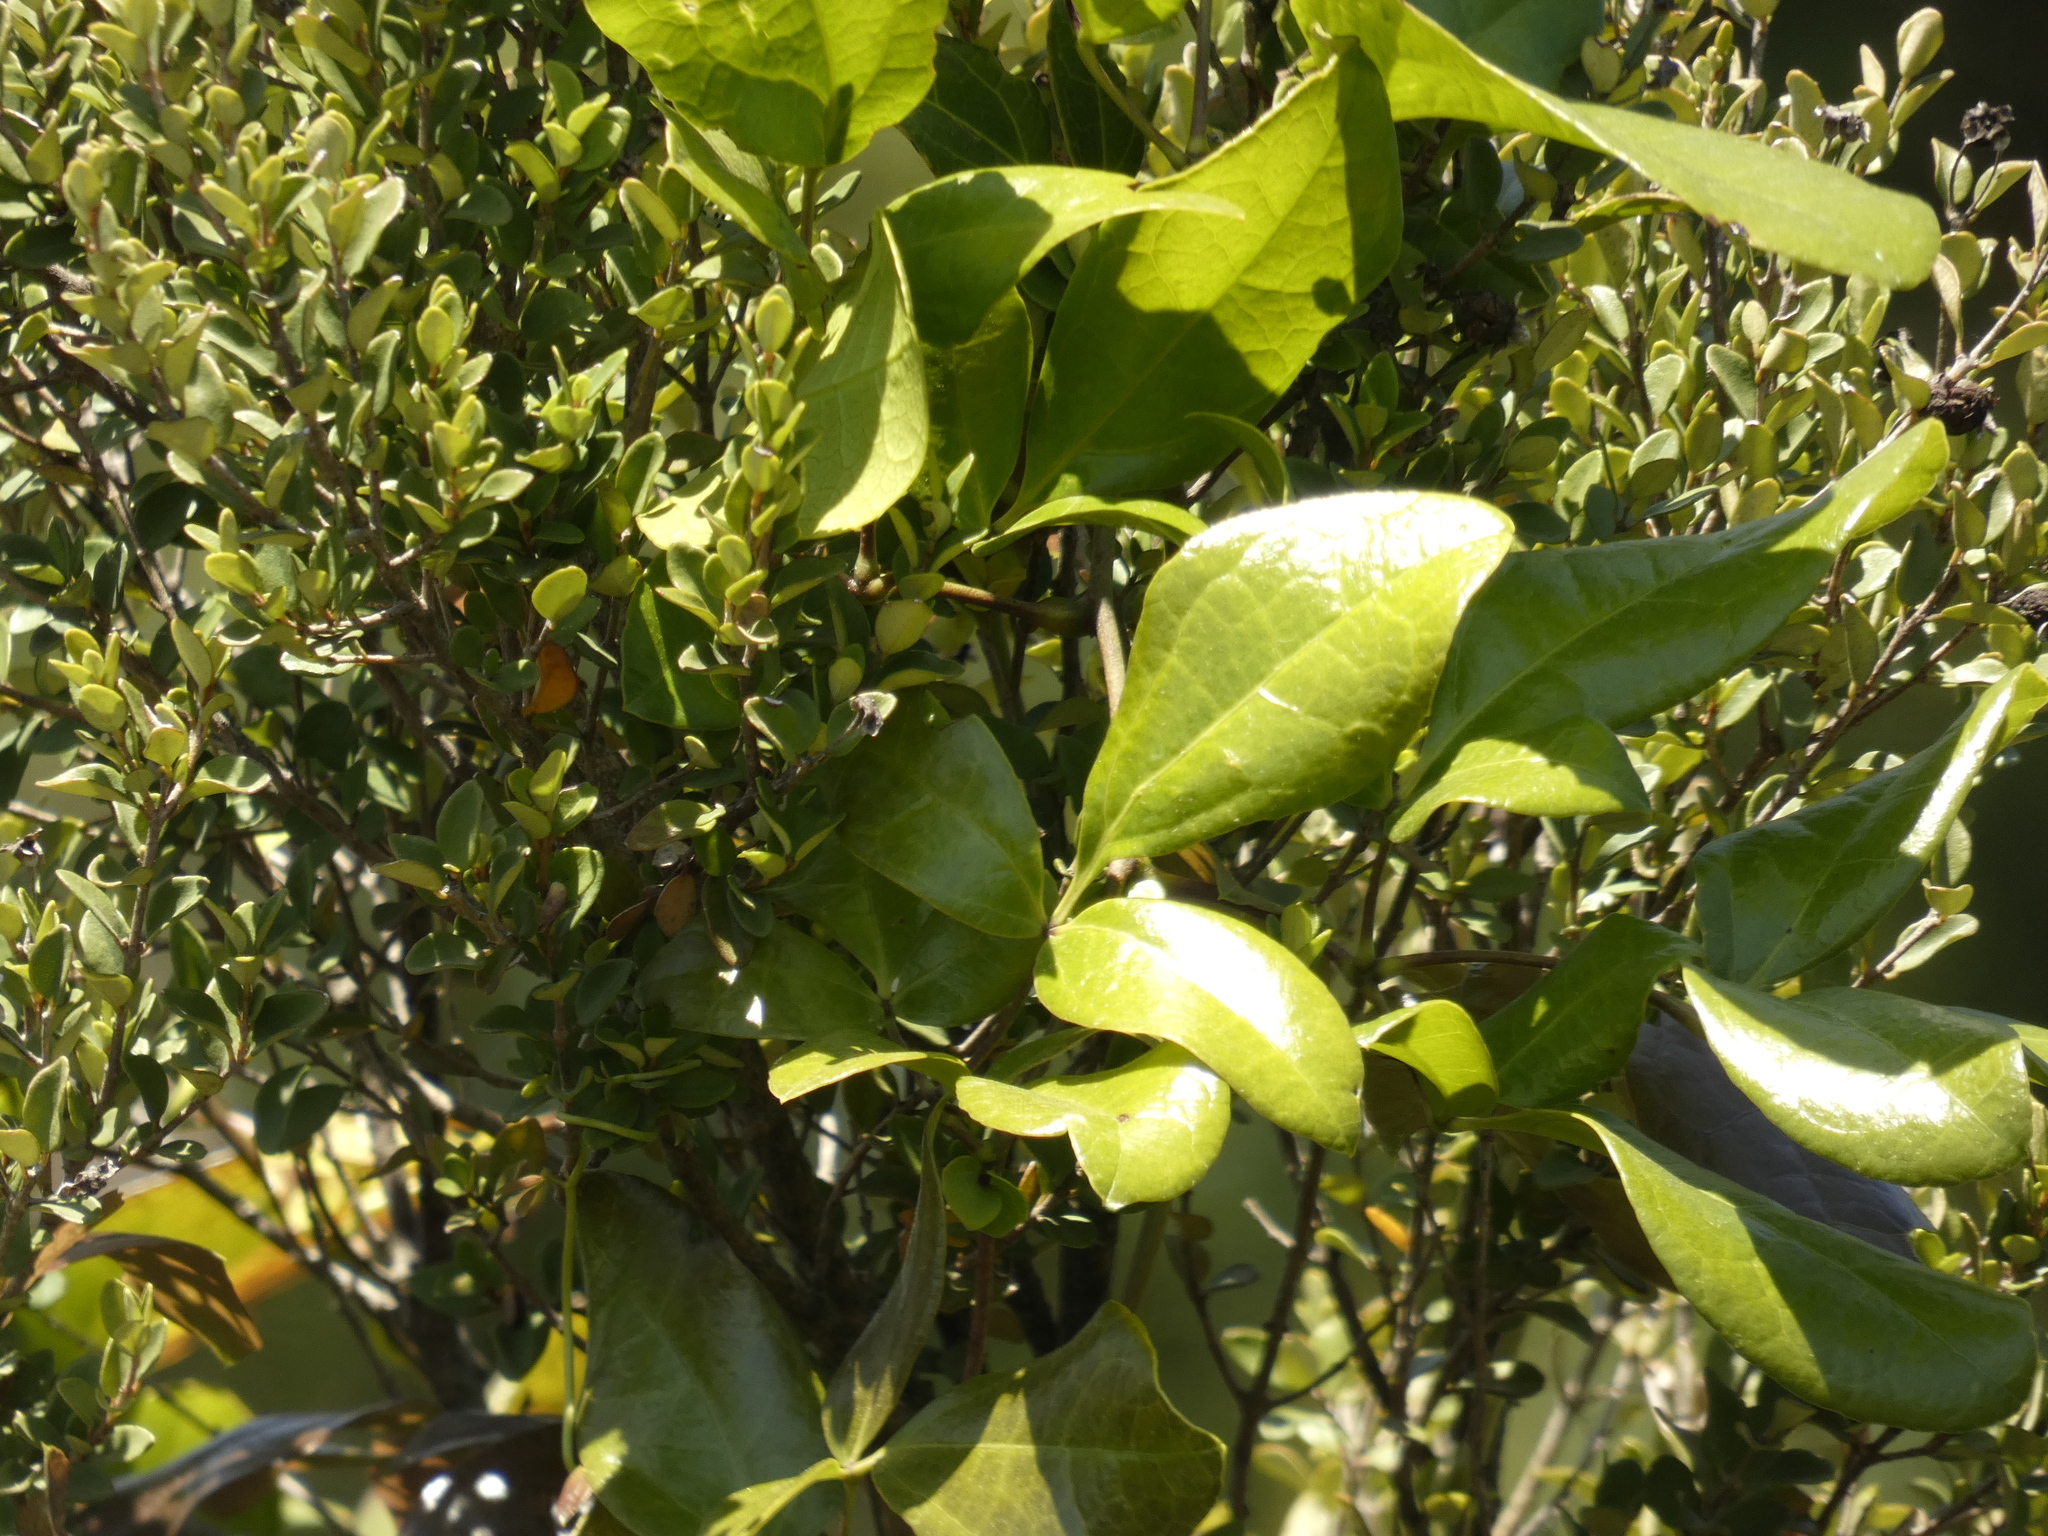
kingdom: Plantae
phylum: Tracheophyta
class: Magnoliopsida
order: Ranunculales
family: Lardizabalaceae
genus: Lardizabala
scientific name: Lardizabala funaria
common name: Zabala
